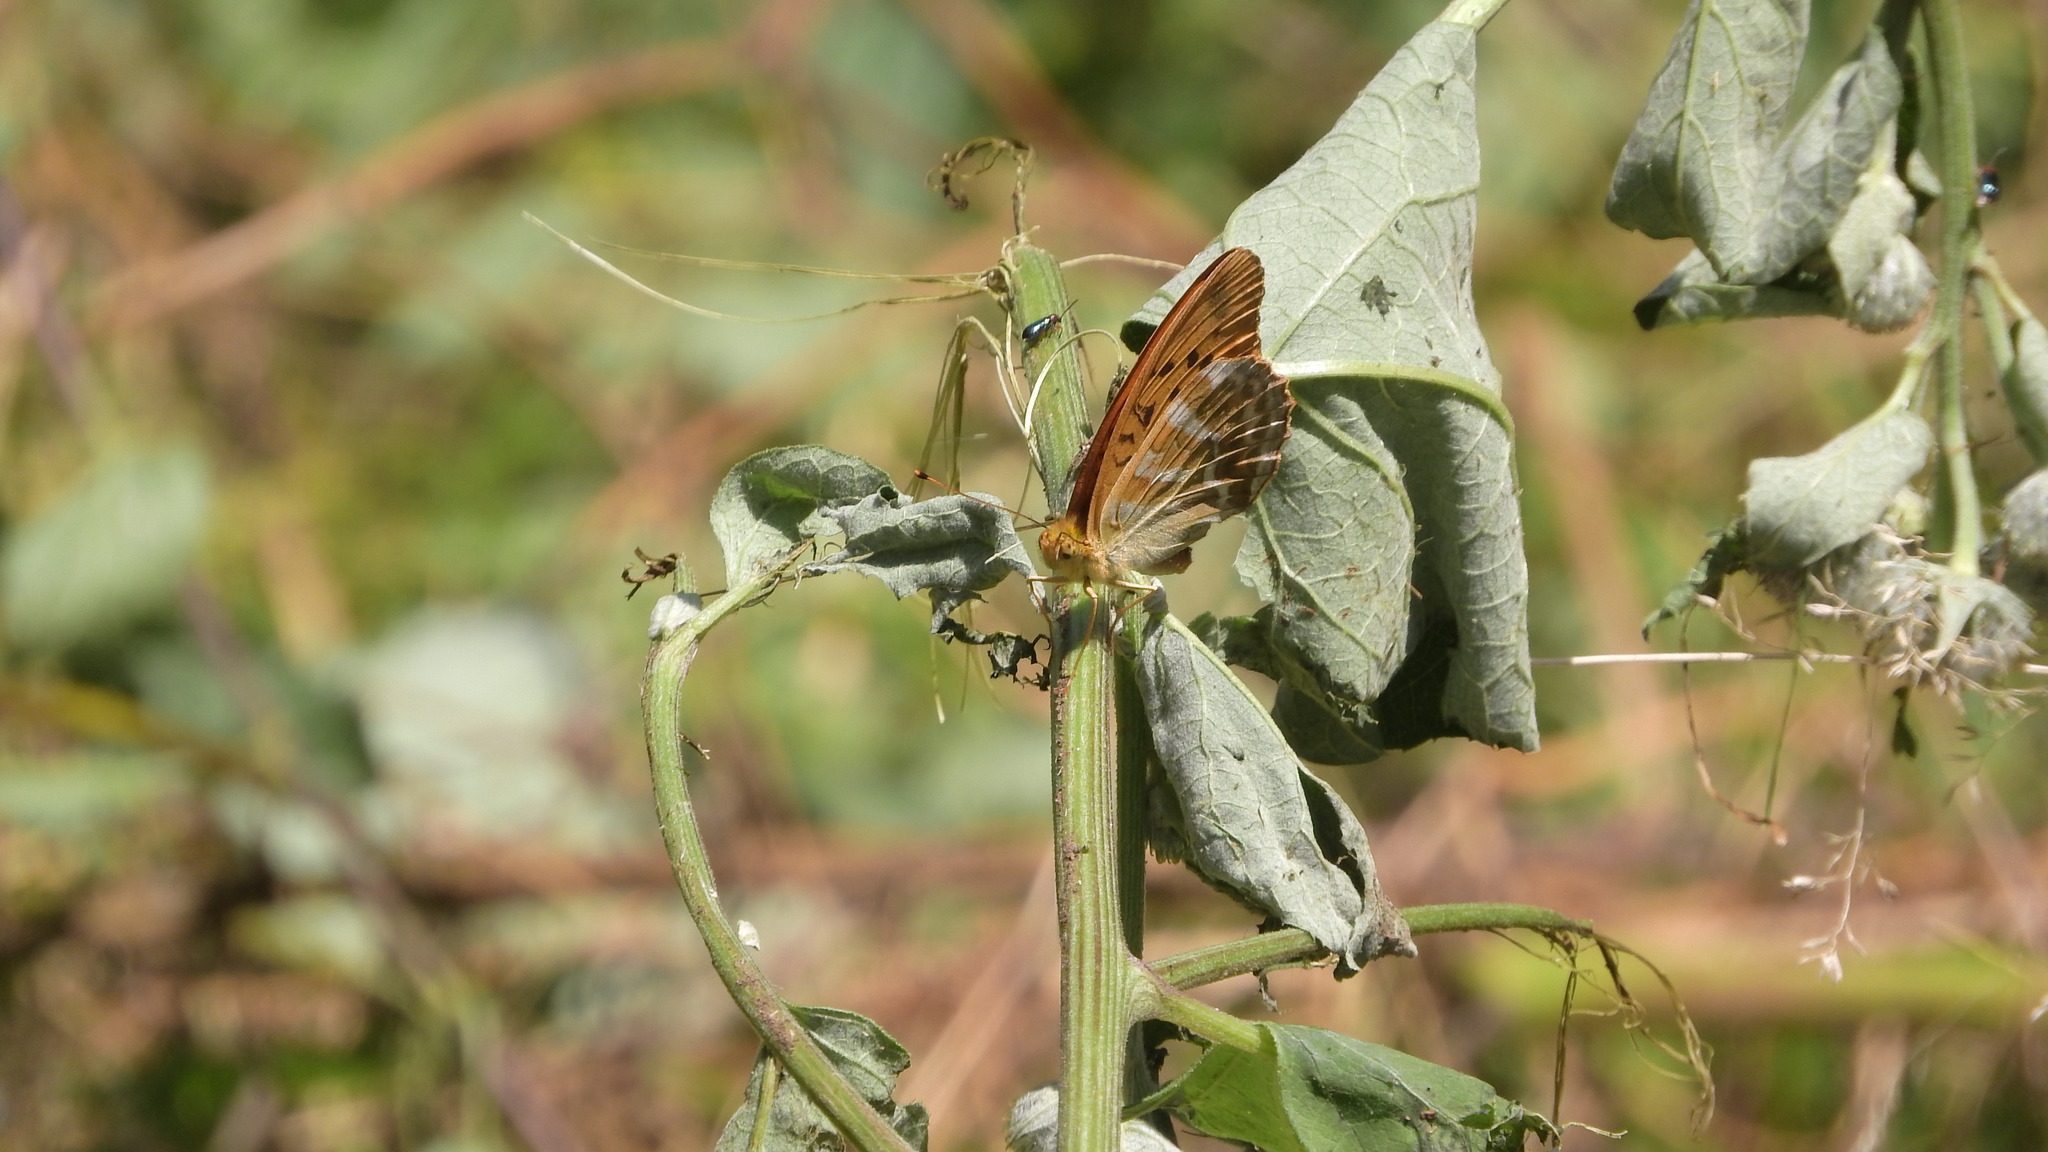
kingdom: Animalia
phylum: Arthropoda
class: Insecta
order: Lepidoptera
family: Nymphalidae
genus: Argynnis
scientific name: Argynnis paphia
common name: Silver-washed fritillary
